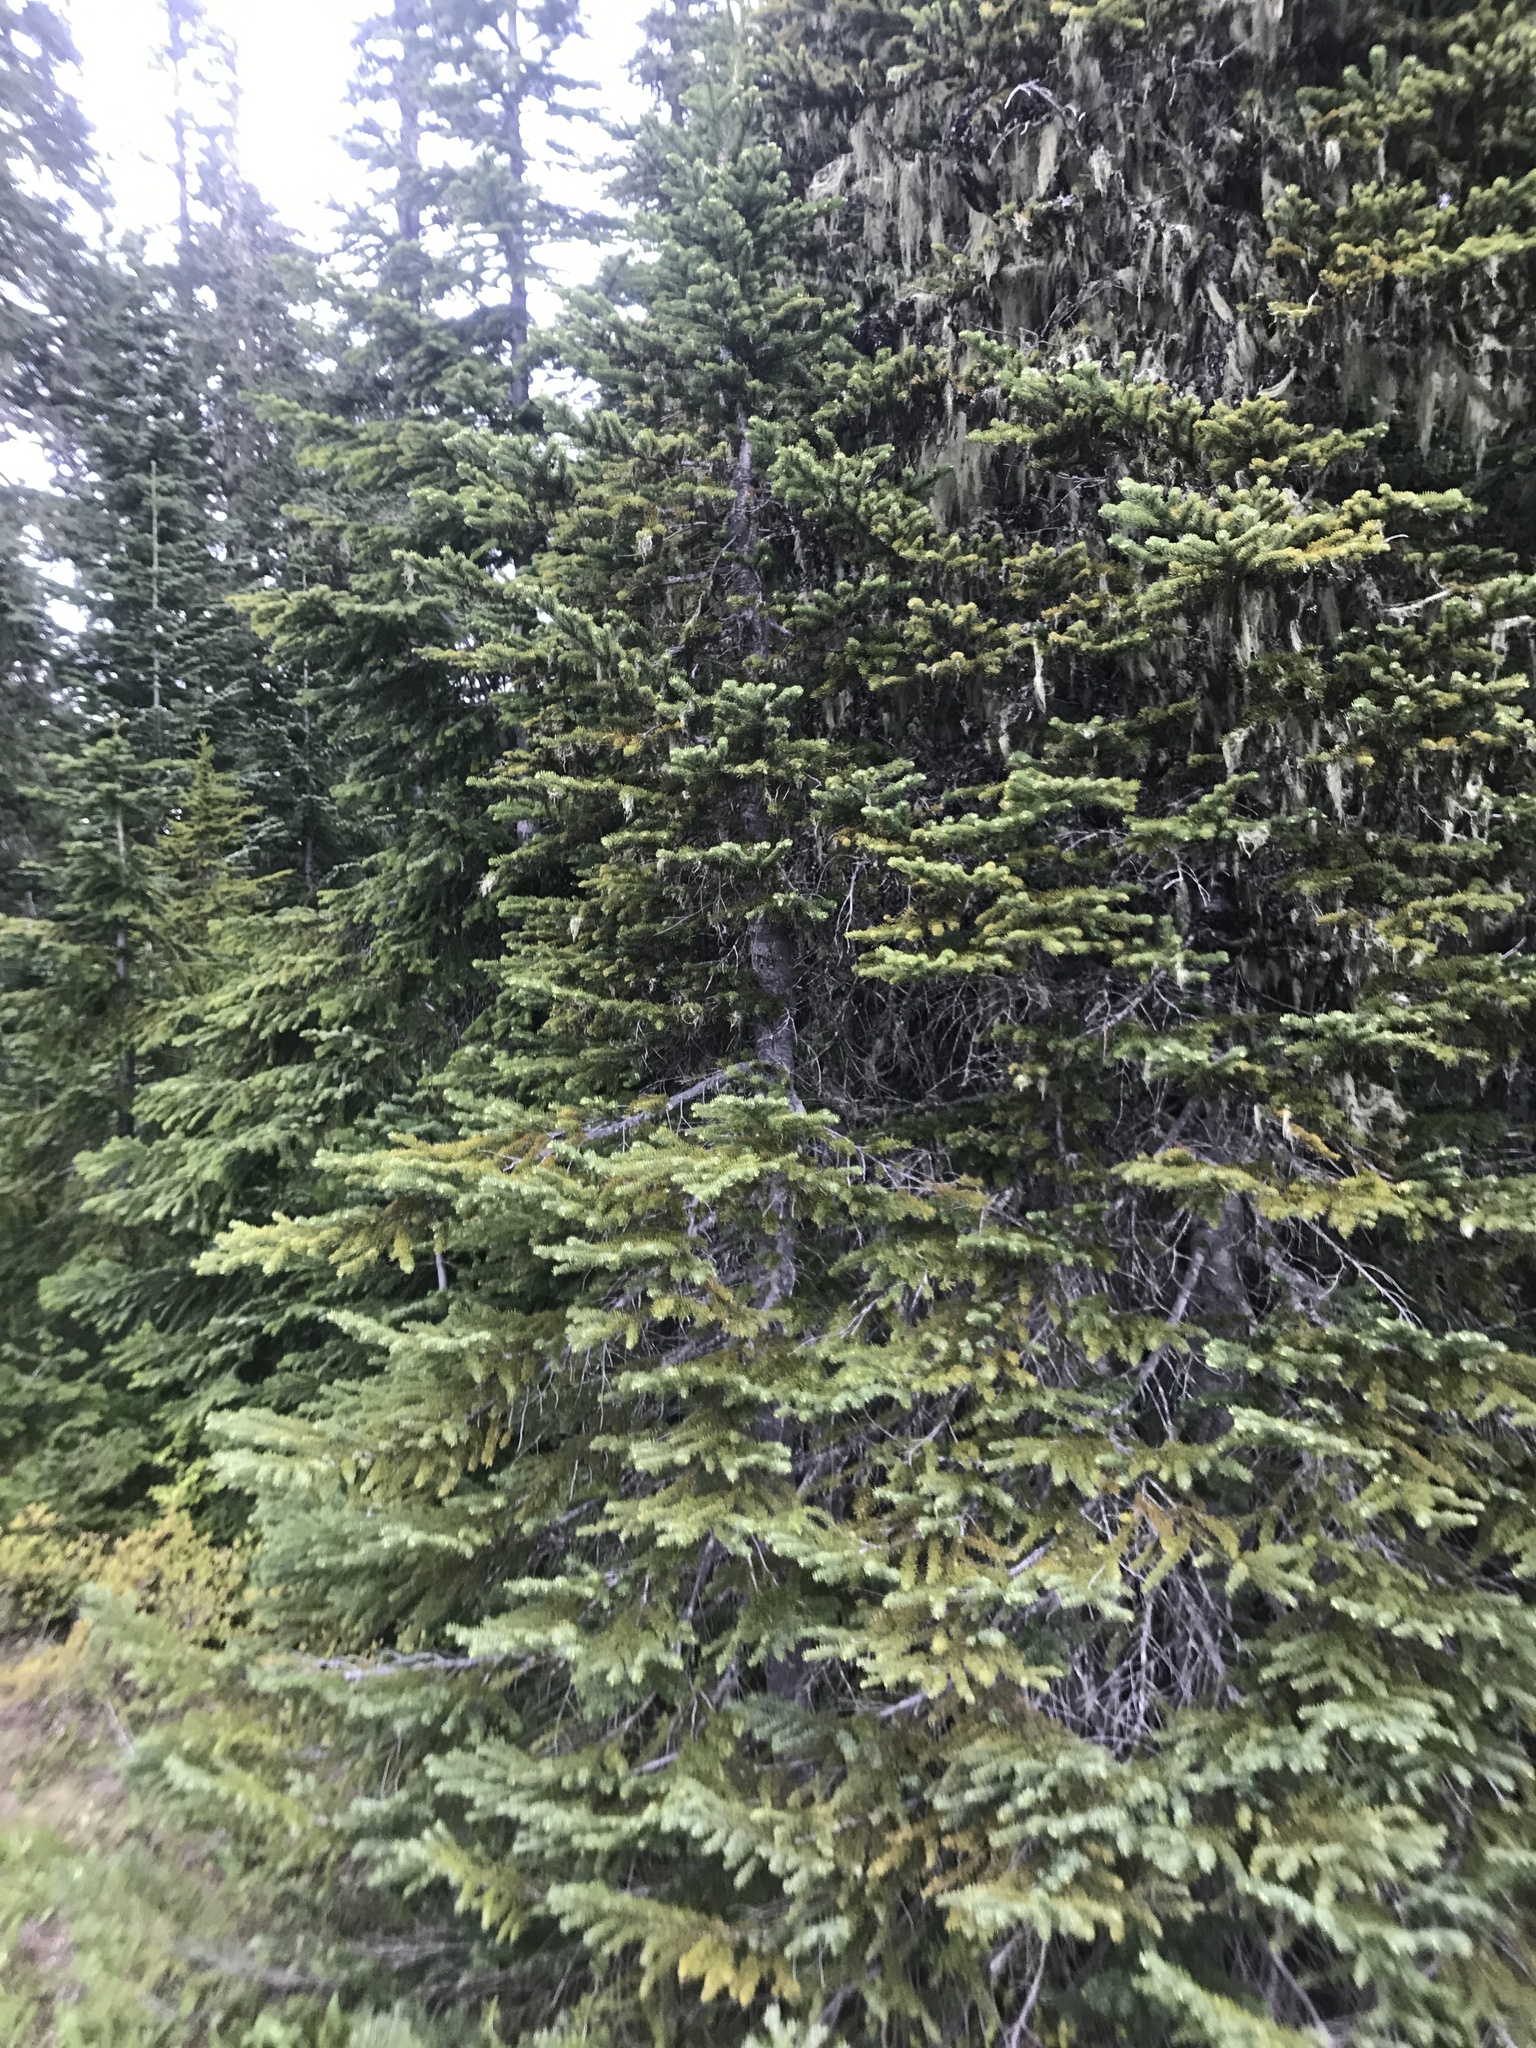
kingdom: Plantae
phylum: Tracheophyta
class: Pinopsida
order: Pinales
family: Pinaceae
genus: Abies
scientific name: Abies lasiocarpa
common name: Subalpine fir
